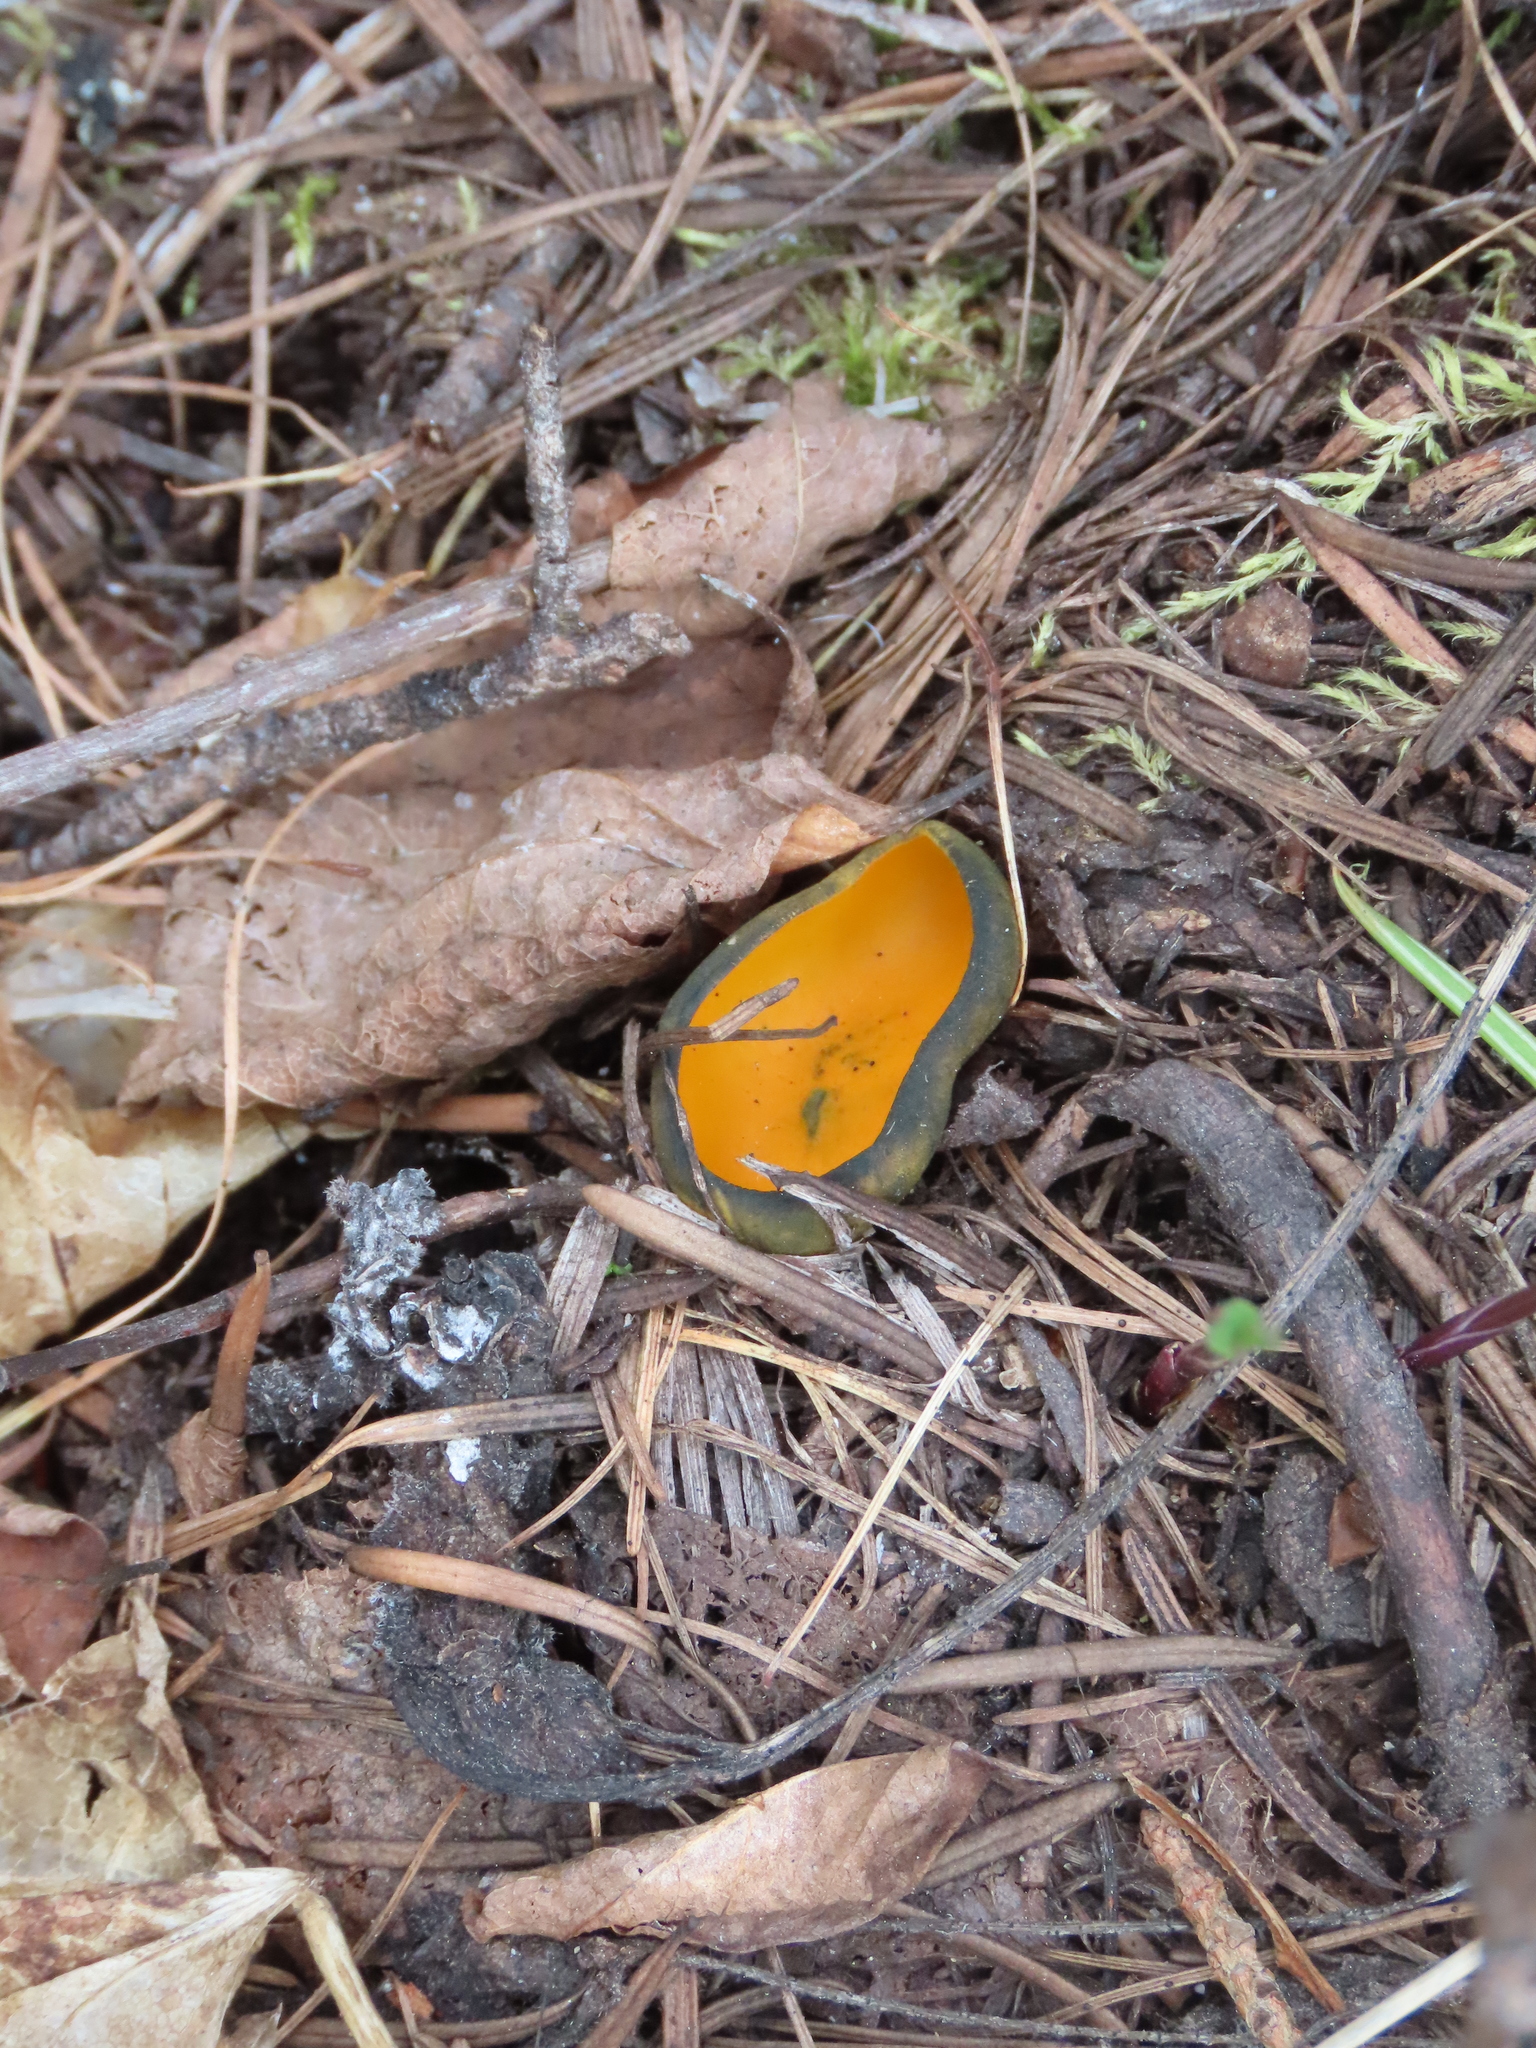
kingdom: Fungi
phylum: Ascomycota
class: Pezizomycetes
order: Pezizales
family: Caloscyphaceae
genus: Caloscypha
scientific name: Caloscypha fulgens
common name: Golden cup
